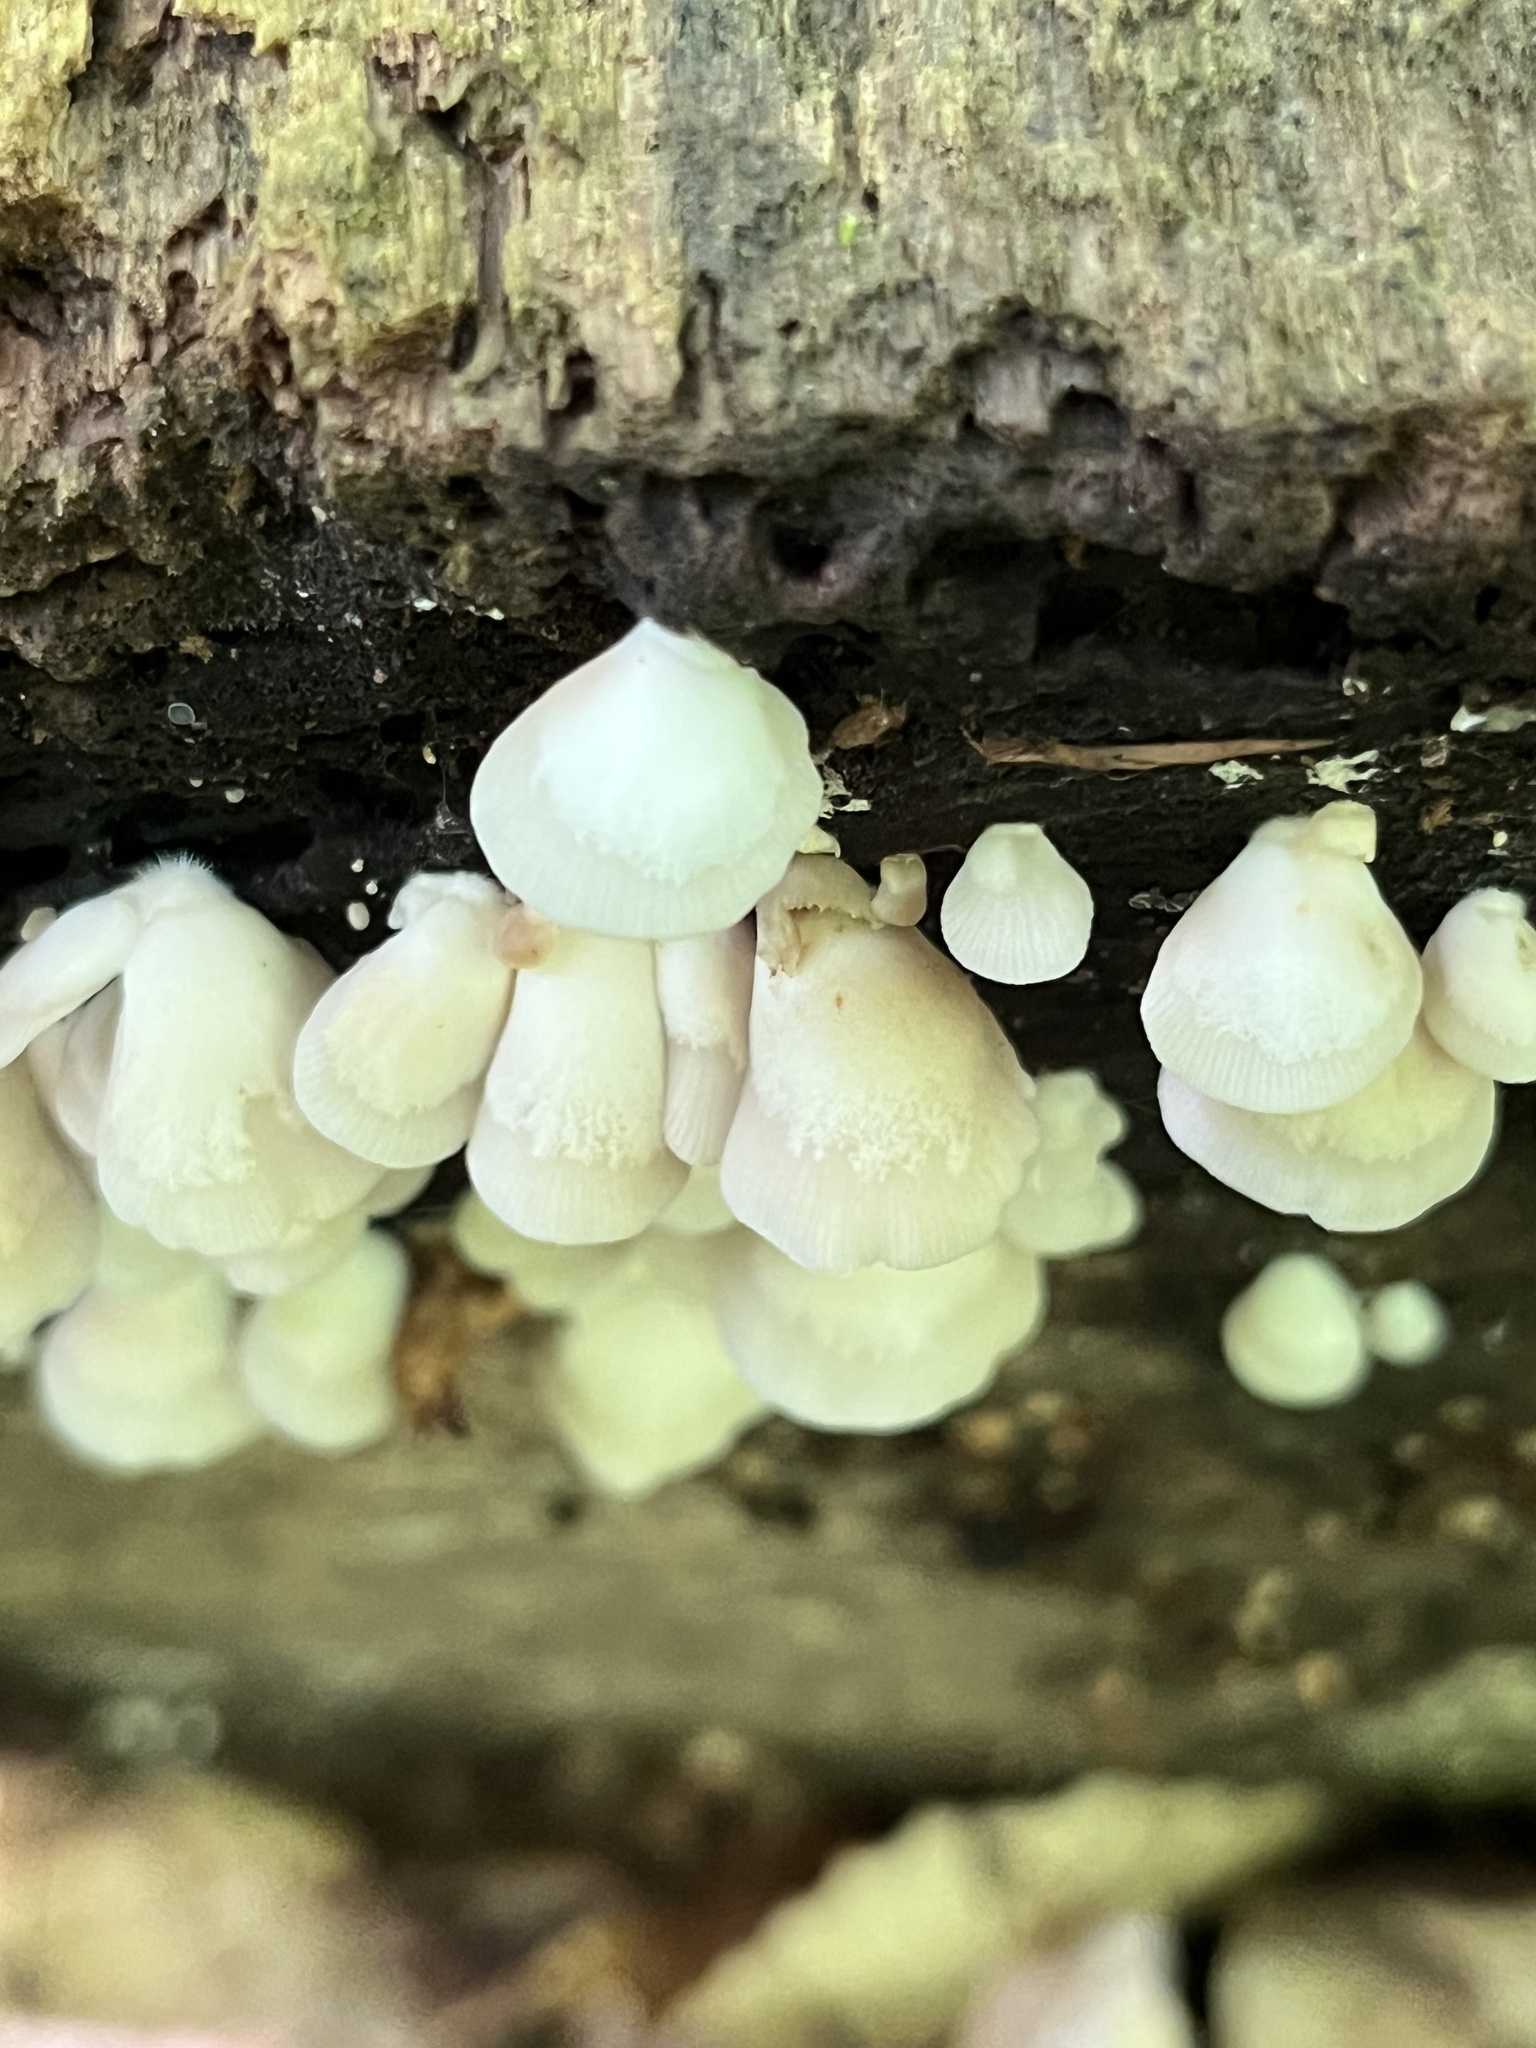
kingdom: Fungi
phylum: Basidiomycota
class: Agaricomycetes
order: Agaricales
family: Crepidotaceae
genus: Crepidotus
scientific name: Crepidotus applanatus
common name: Flat crep
